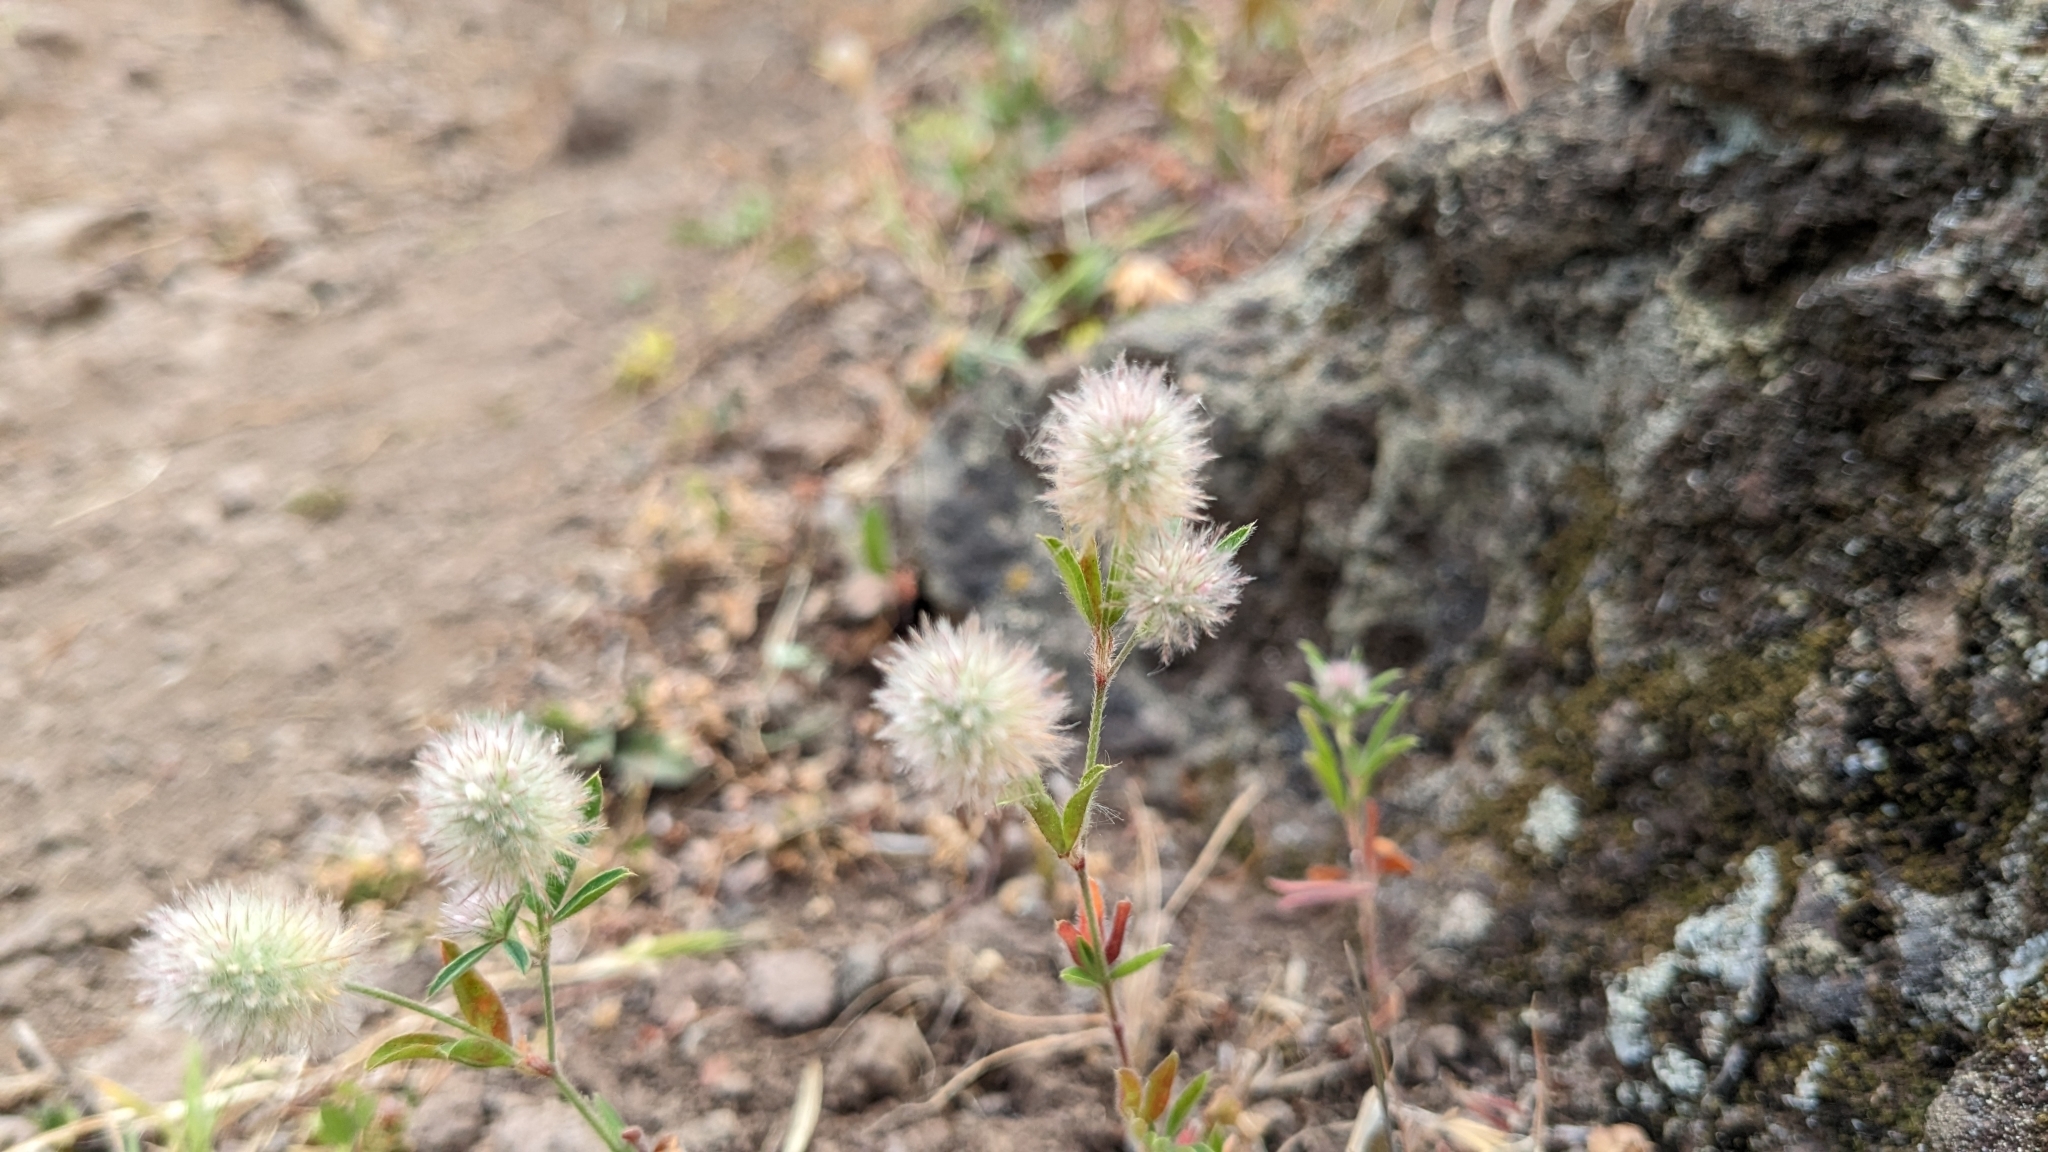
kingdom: Plantae
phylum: Tracheophyta
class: Magnoliopsida
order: Fabales
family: Fabaceae
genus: Trifolium
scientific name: Trifolium arvense
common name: Hare's-foot clover
